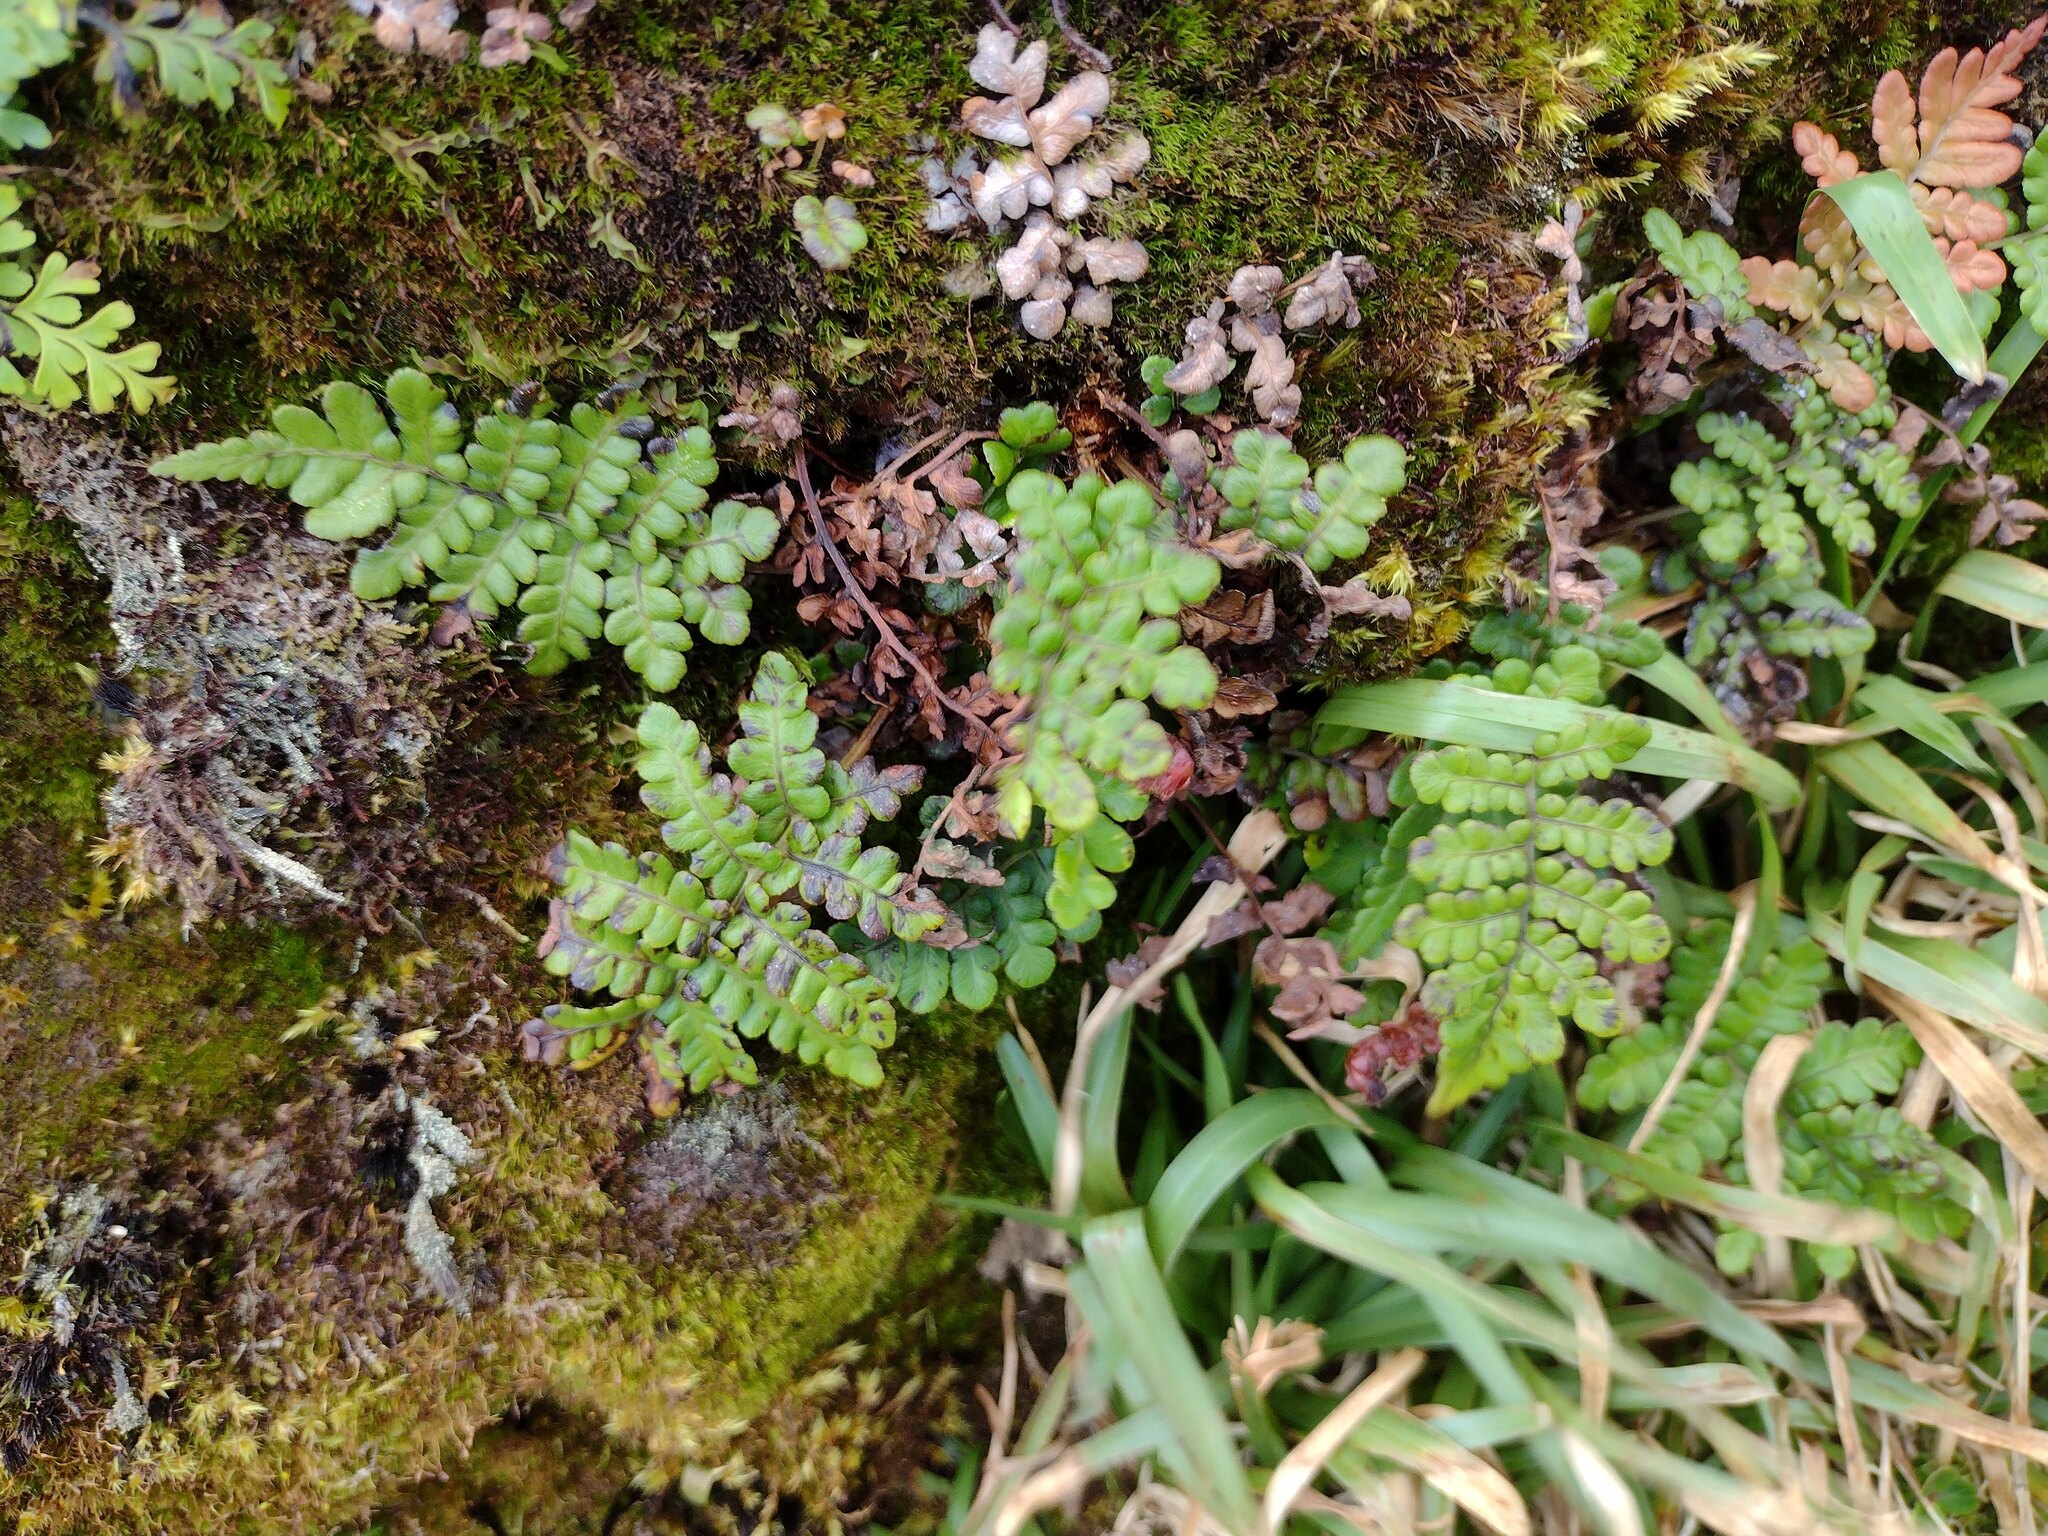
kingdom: Plantae
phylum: Tracheophyta
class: Polypodiopsida
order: Polypodiales
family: Blechnaceae
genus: Sadleria
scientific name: Sadleria pallida
